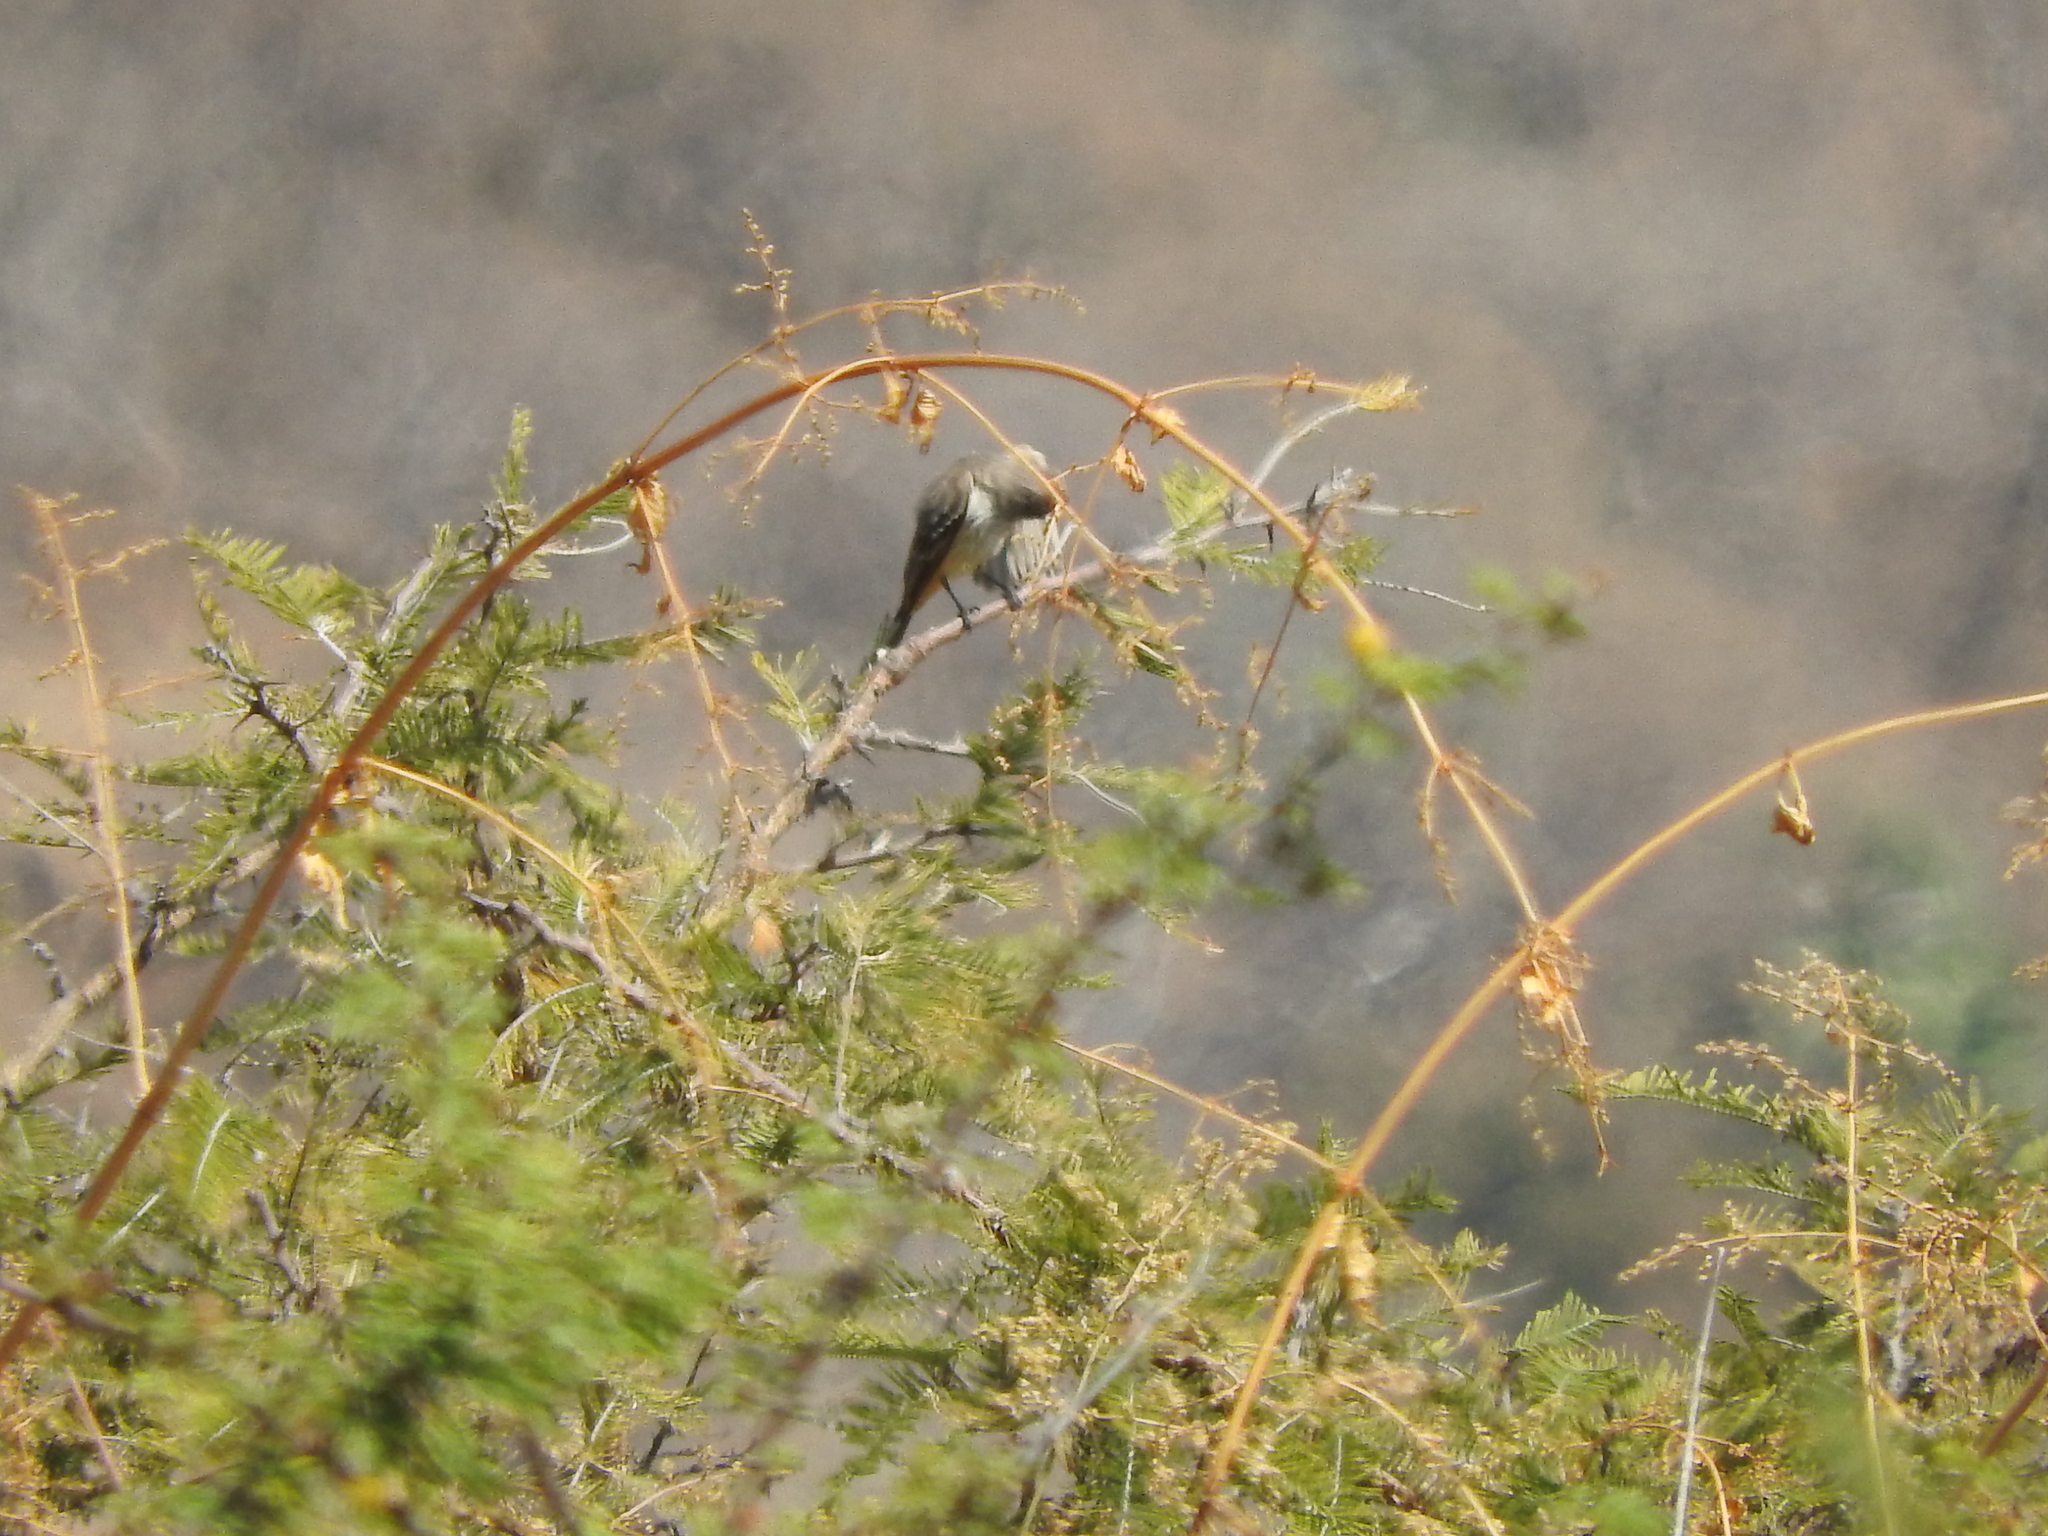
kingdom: Animalia
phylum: Chordata
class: Aves
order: Passeriformes
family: Tyrannidae
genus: Pyrocephalus
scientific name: Pyrocephalus rubinus
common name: Vermilion flycatcher
